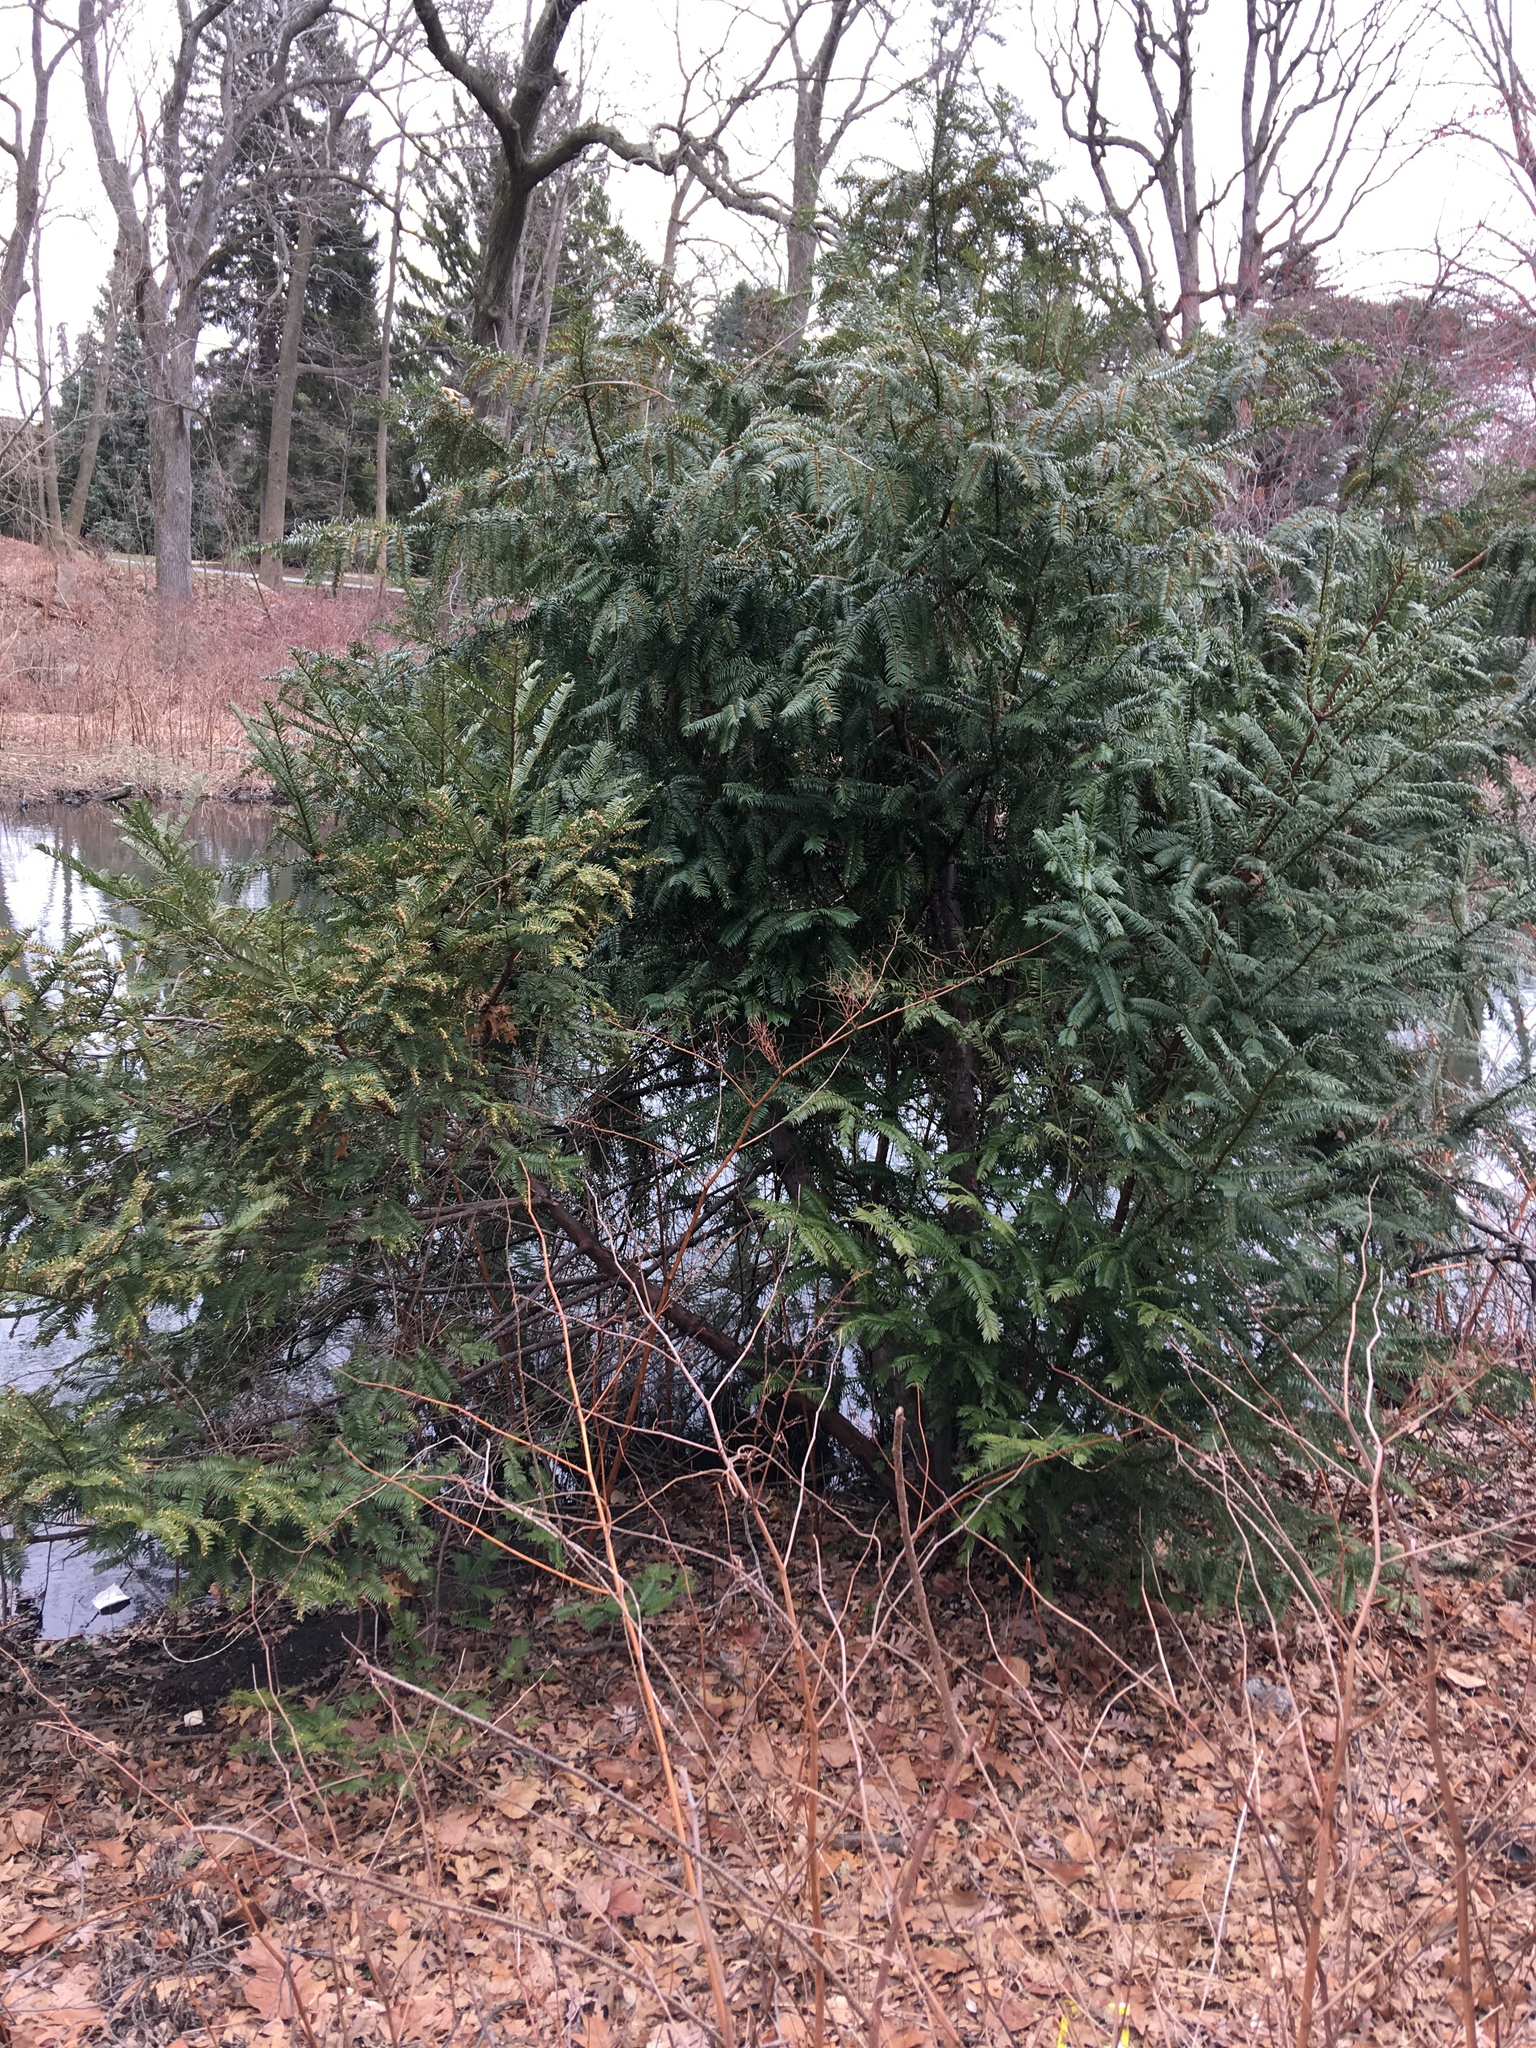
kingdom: Plantae
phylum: Tracheophyta
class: Pinopsida
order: Pinales
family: Cephalotaxaceae
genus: Cephalotaxus
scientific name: Cephalotaxus harringtonia
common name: Japanese plum-yew
